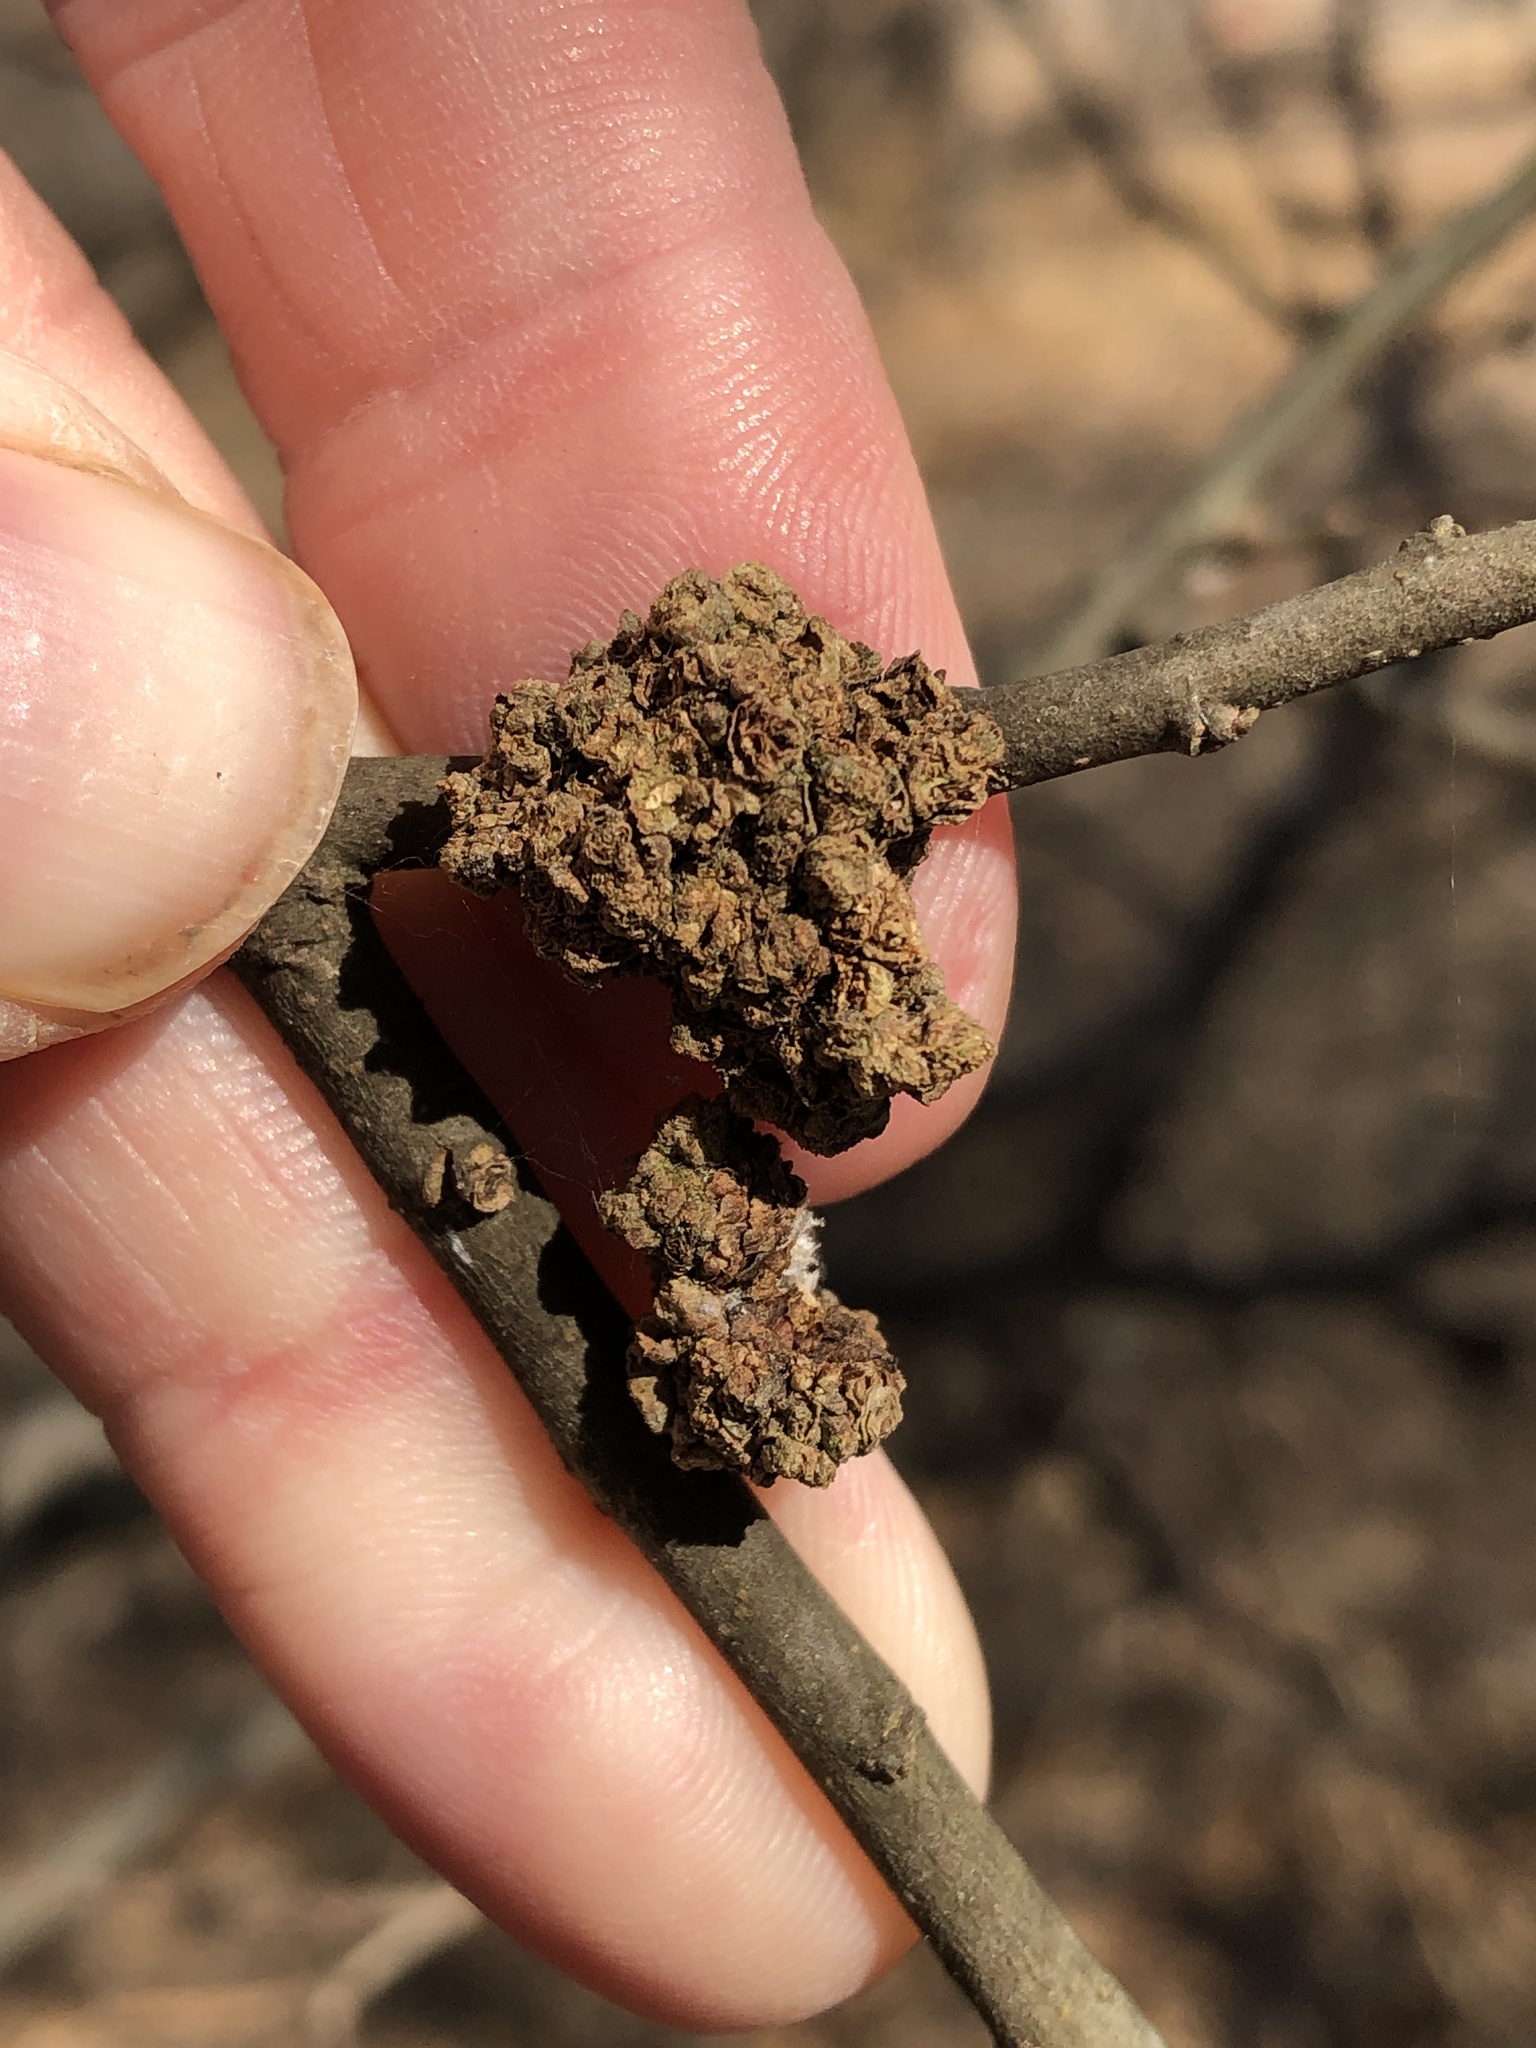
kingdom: Animalia
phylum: Arthropoda
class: Arachnida
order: Trombidiformes
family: Eriophyidae
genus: Aceria
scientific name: Aceria
